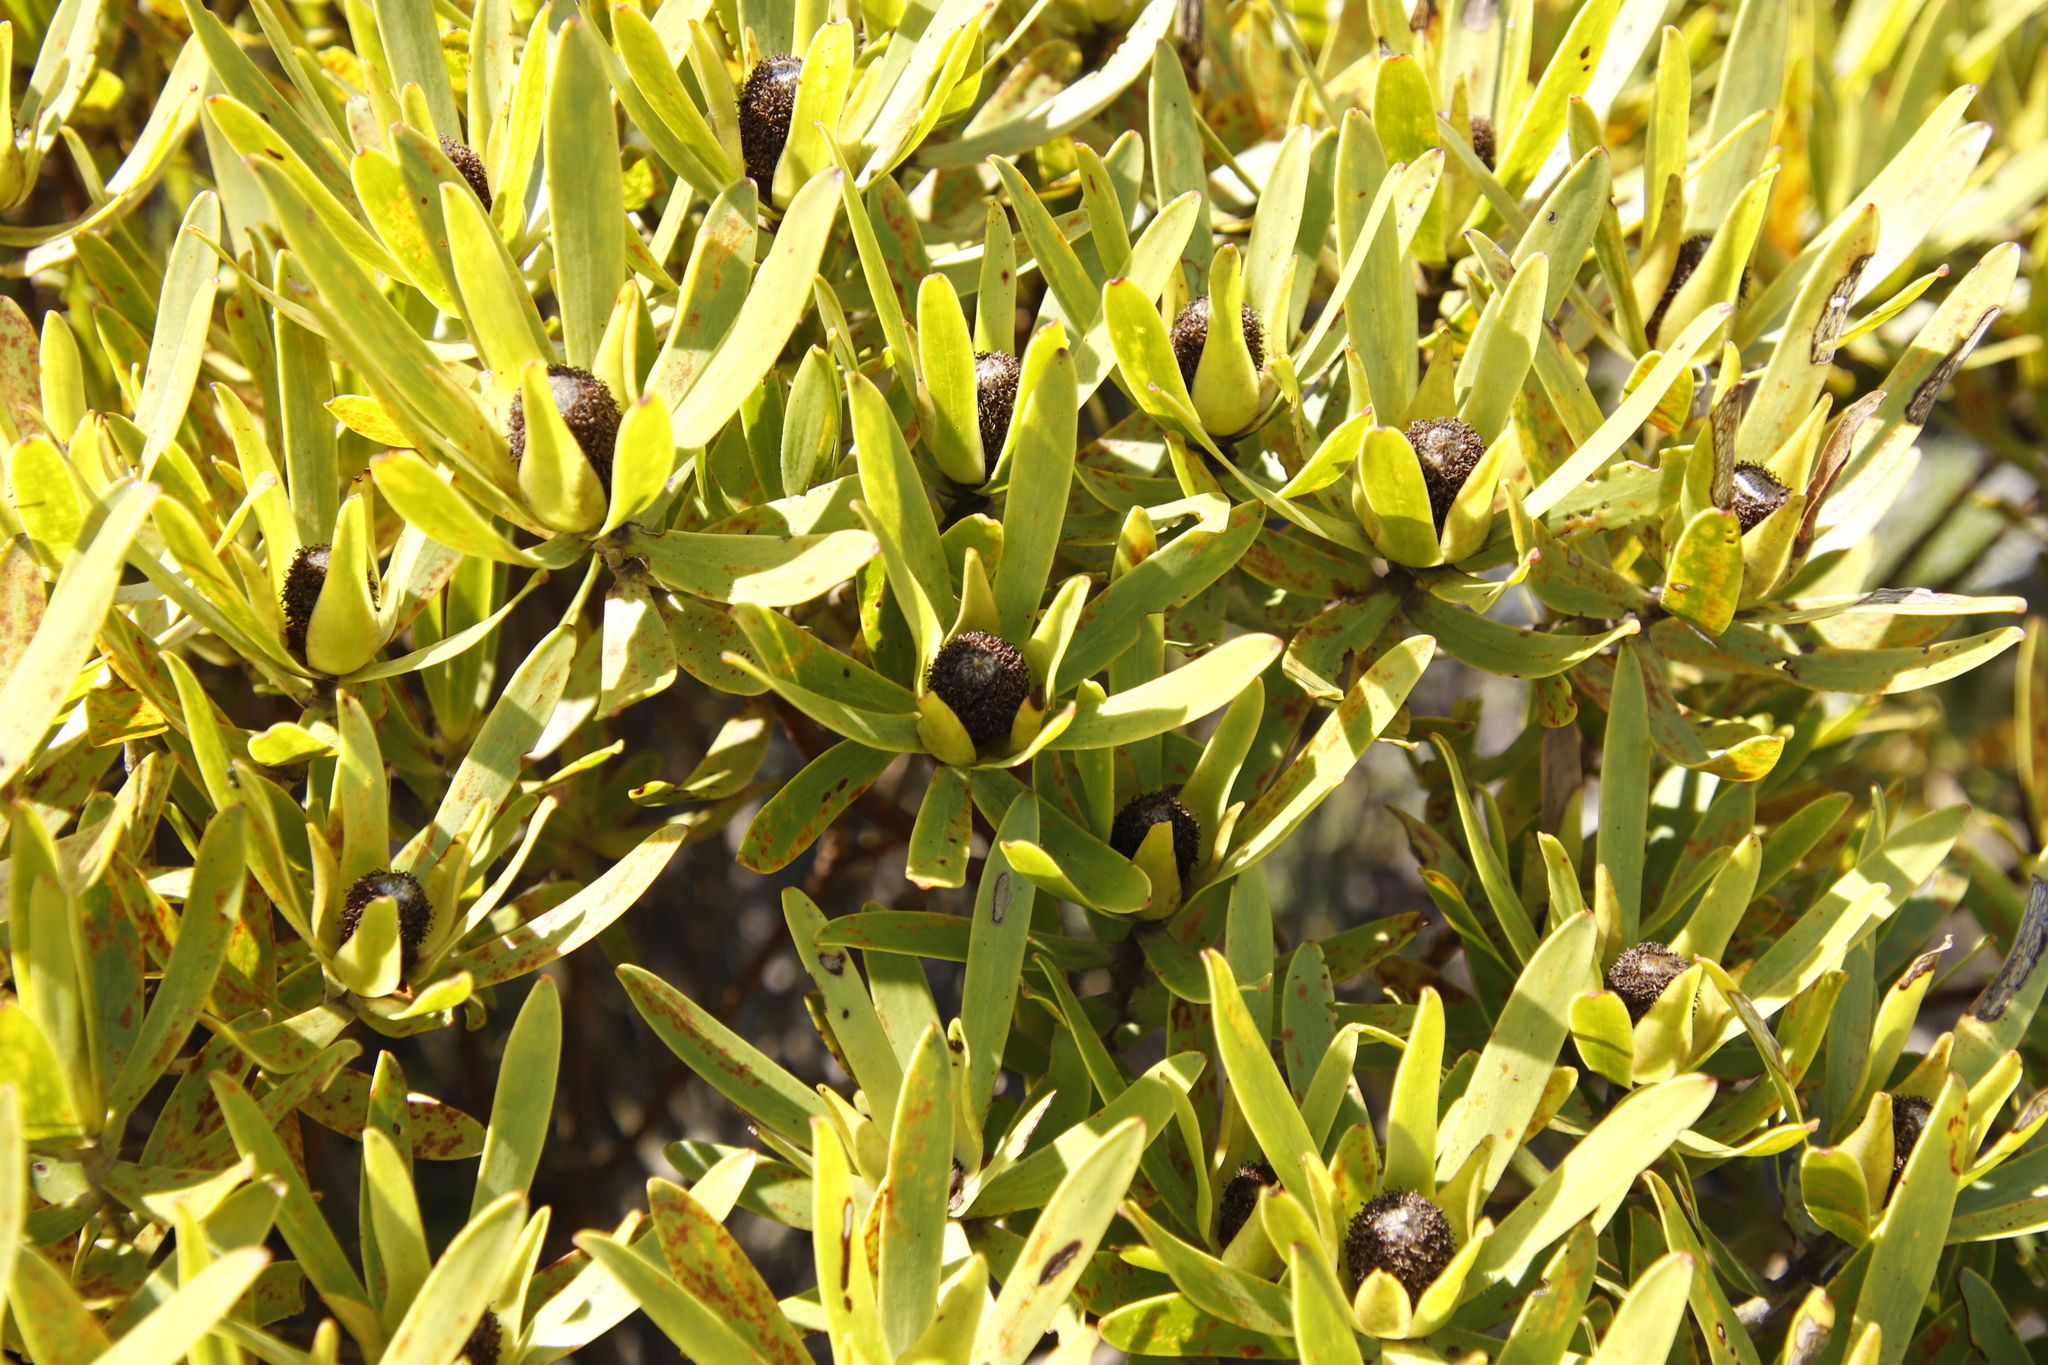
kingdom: Plantae
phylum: Tracheophyta
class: Magnoliopsida
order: Proteales
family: Proteaceae
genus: Leucadendron
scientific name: Leucadendron laureolum
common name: Golden sunshinebush
